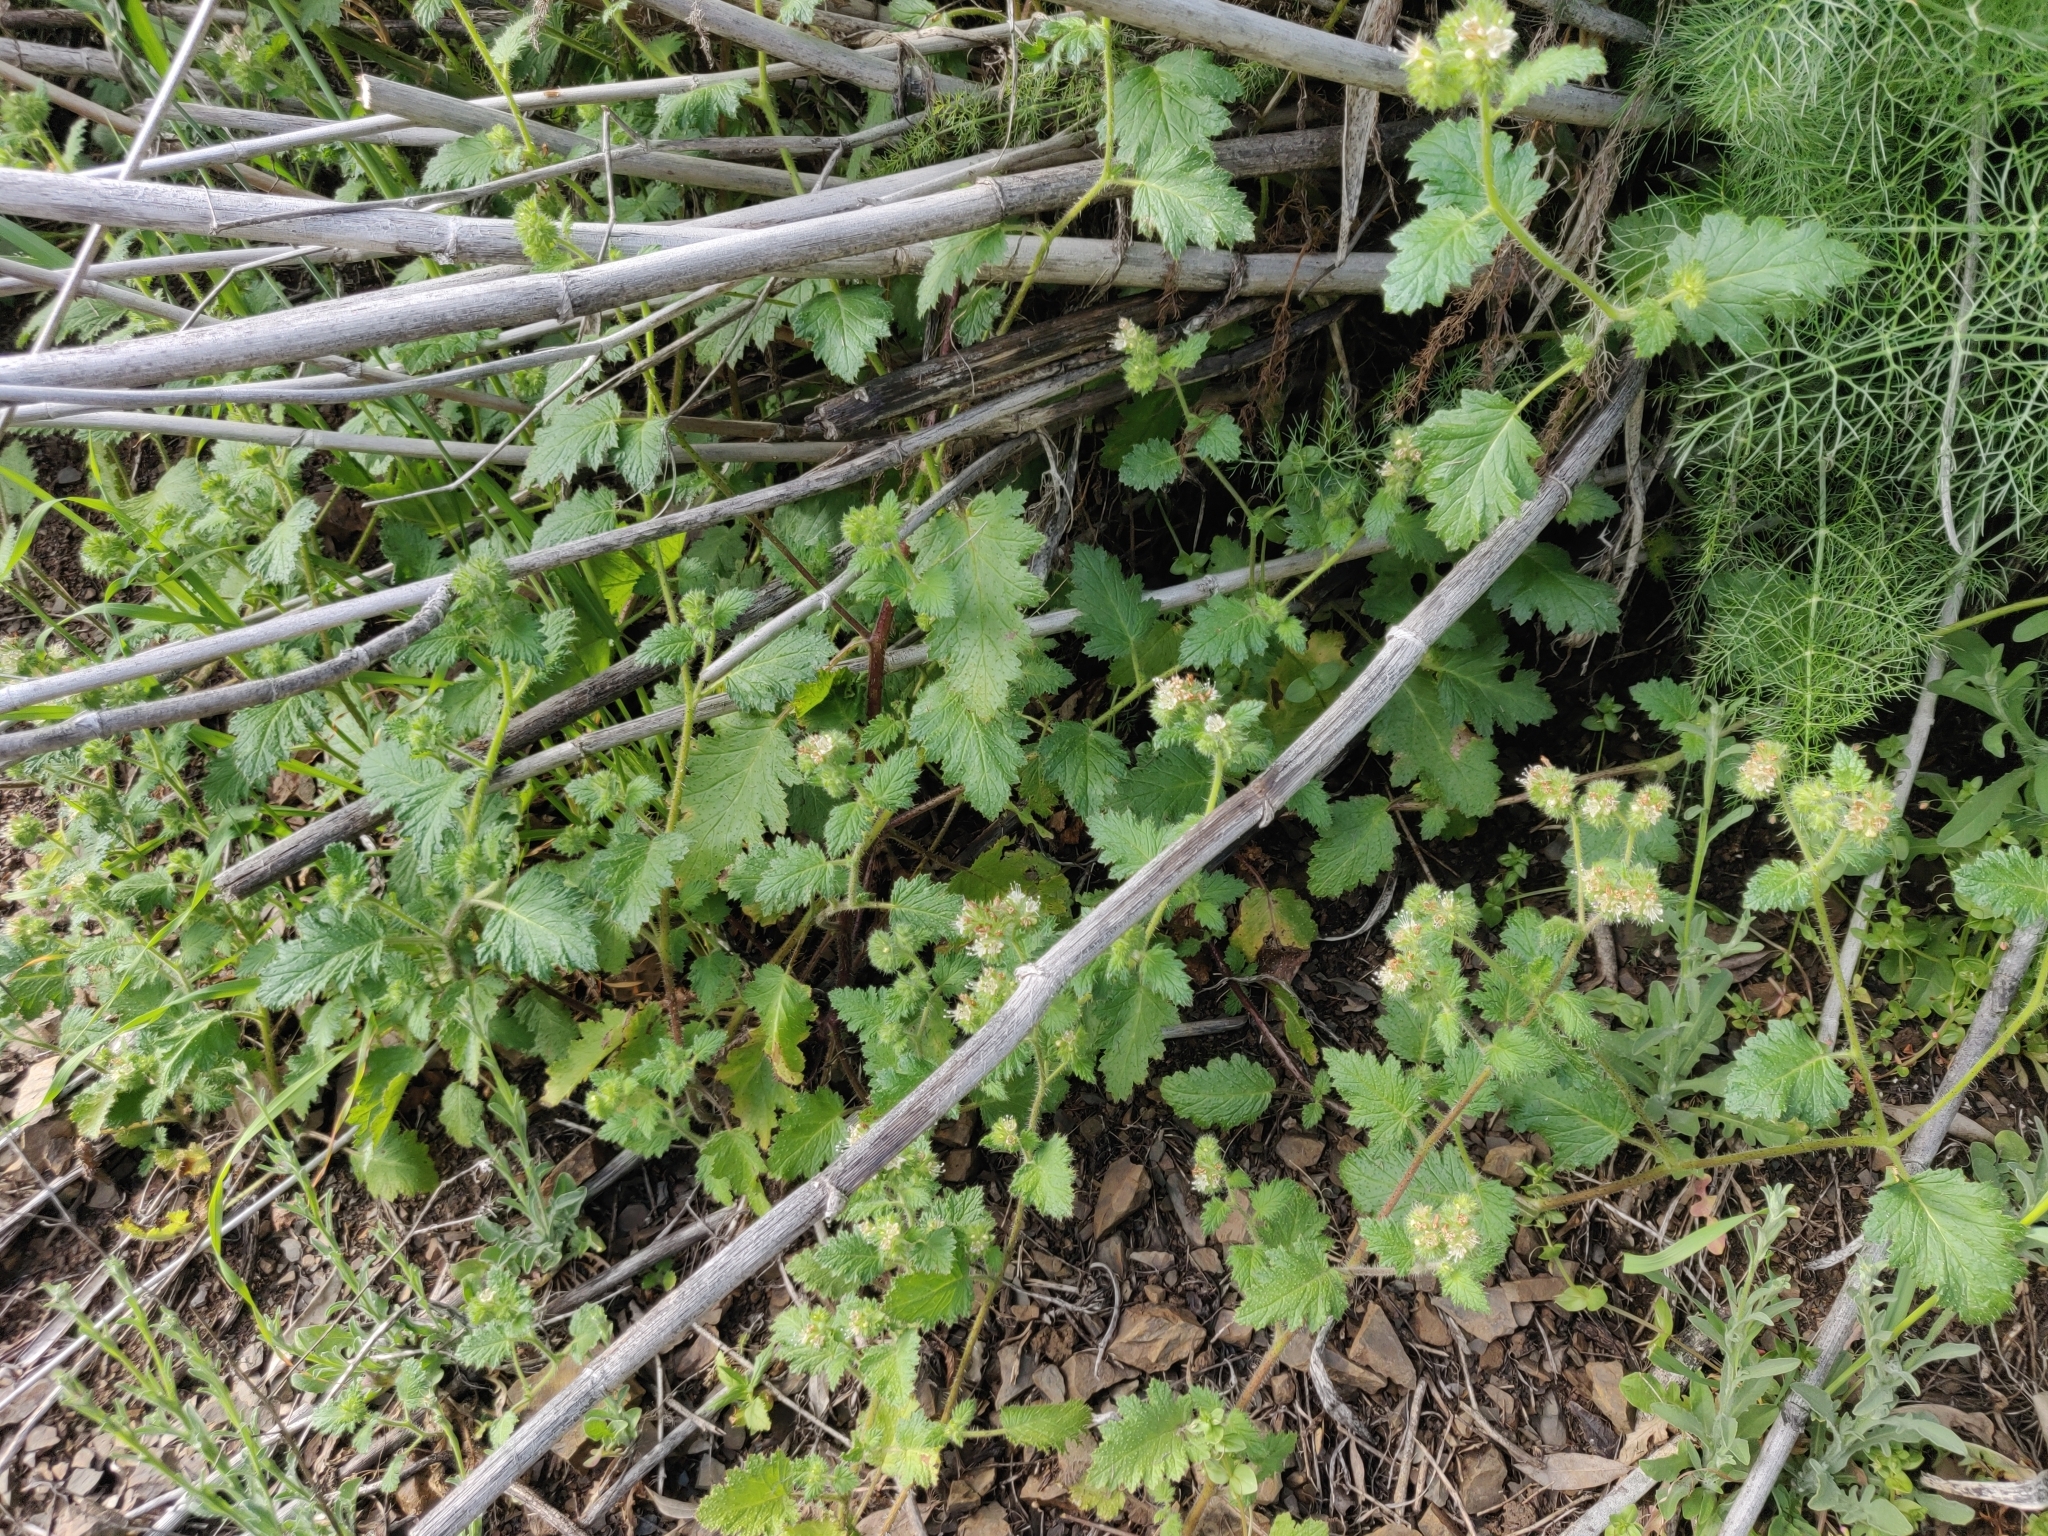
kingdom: Plantae
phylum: Tracheophyta
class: Magnoliopsida
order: Boraginales
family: Hydrophyllaceae
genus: Phacelia
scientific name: Phacelia malvifolia
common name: Mallow-leaf phacelia
